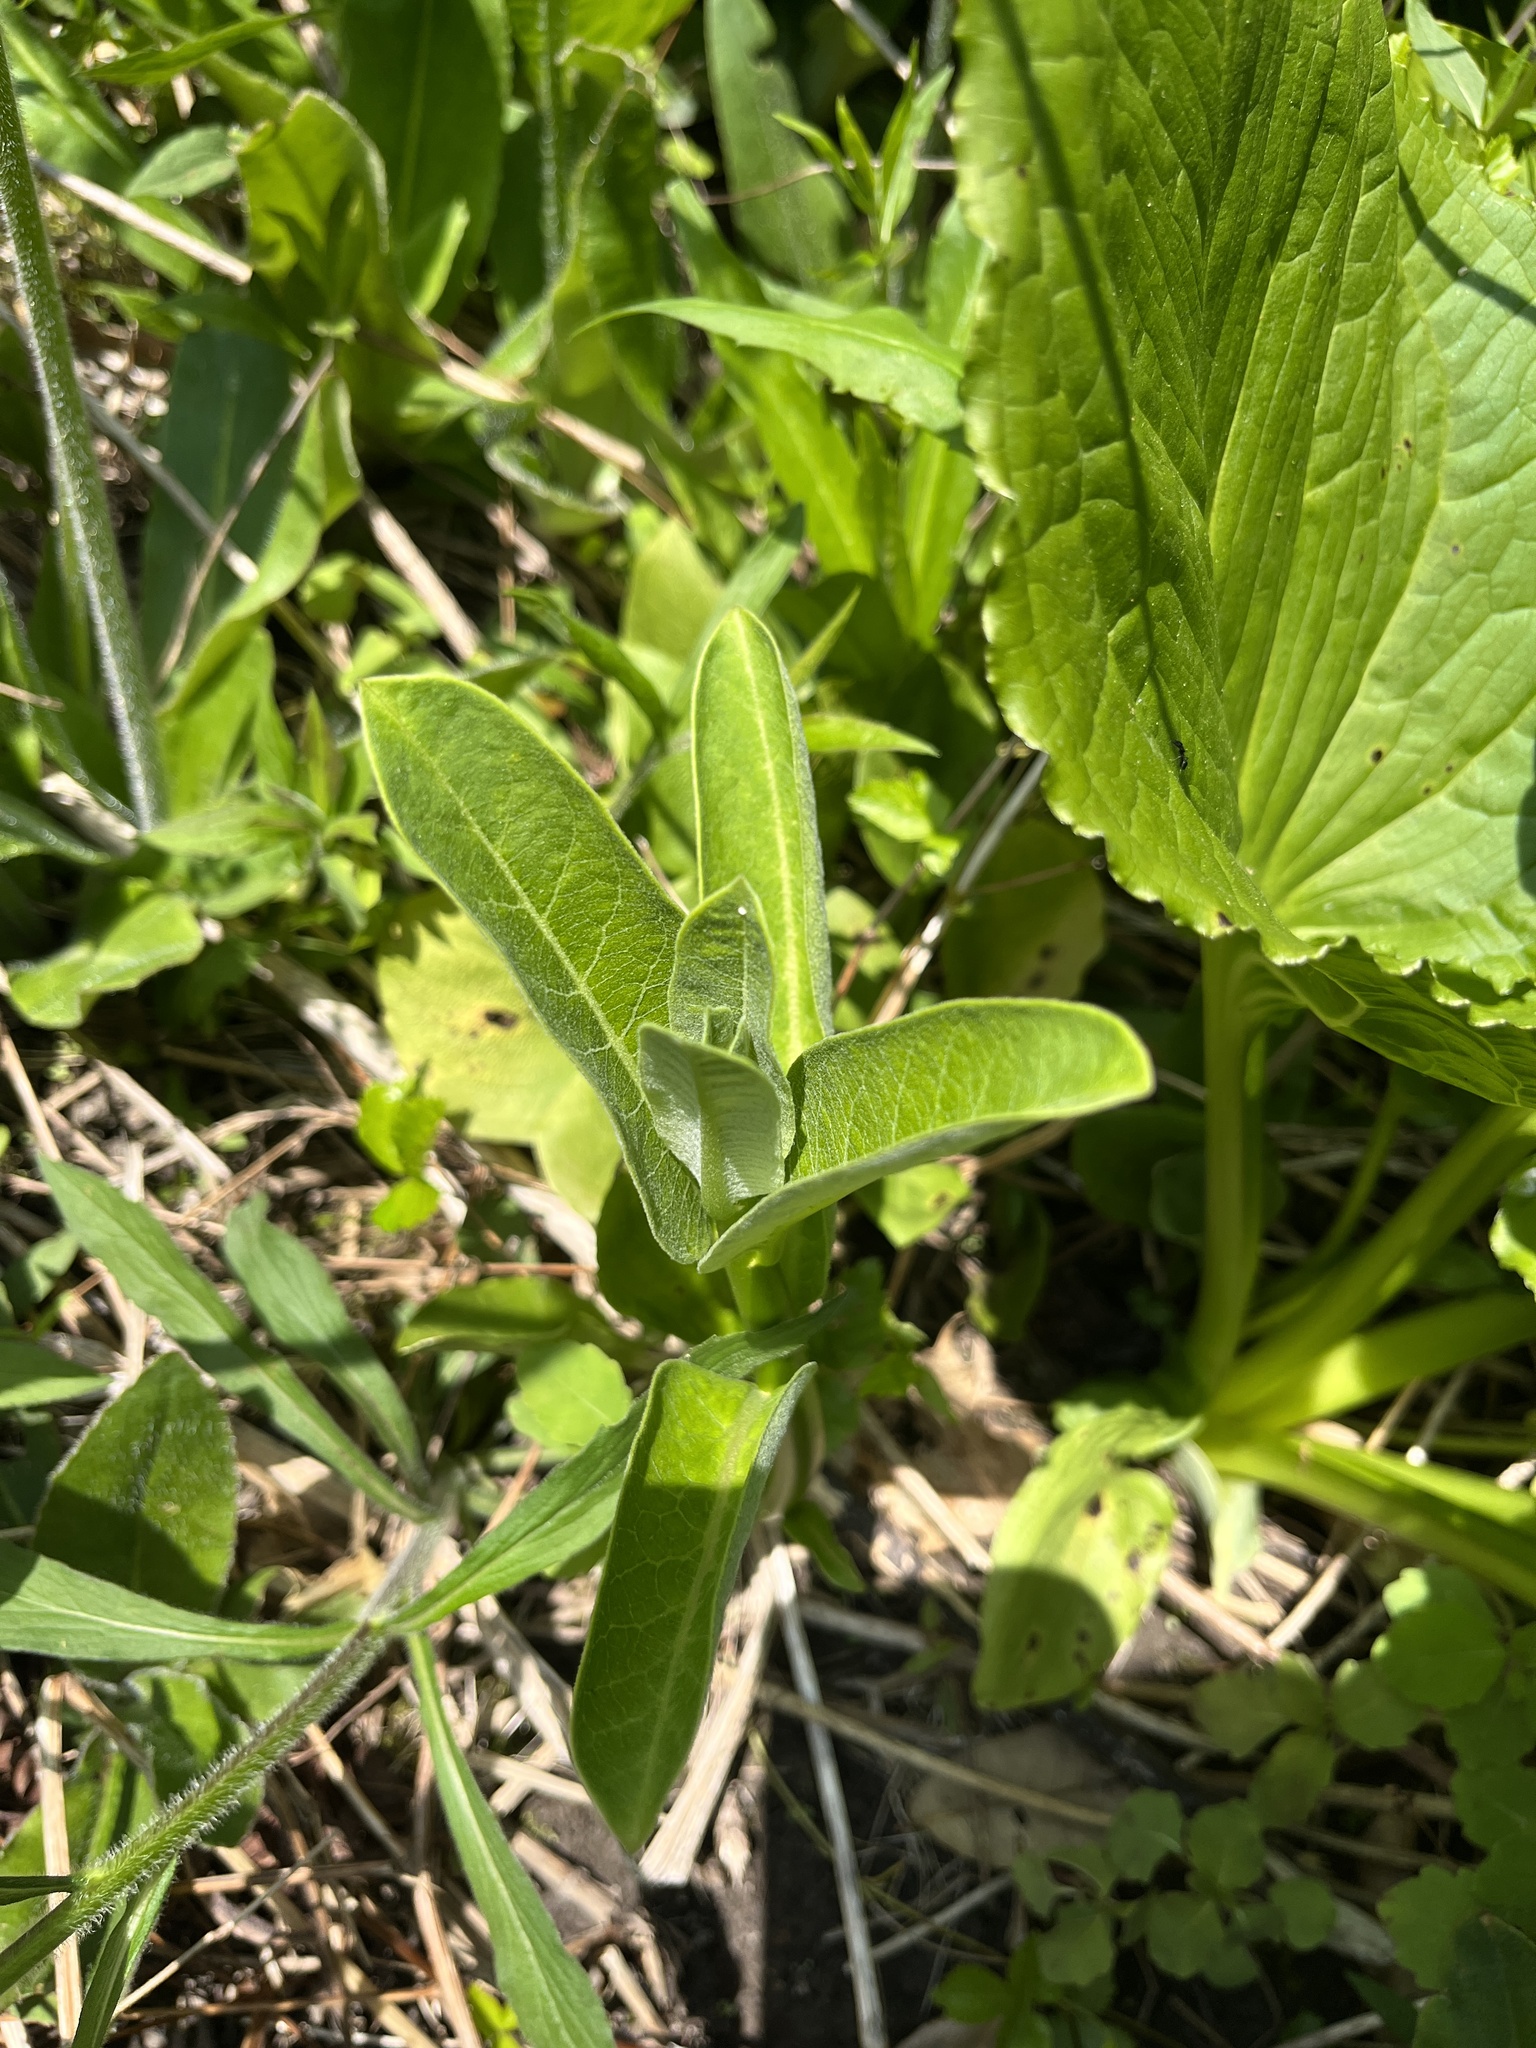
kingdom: Plantae
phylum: Tracheophyta
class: Magnoliopsida
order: Gentianales
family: Apocynaceae
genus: Asclepias
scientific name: Asclepias syriaca
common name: Common milkweed
